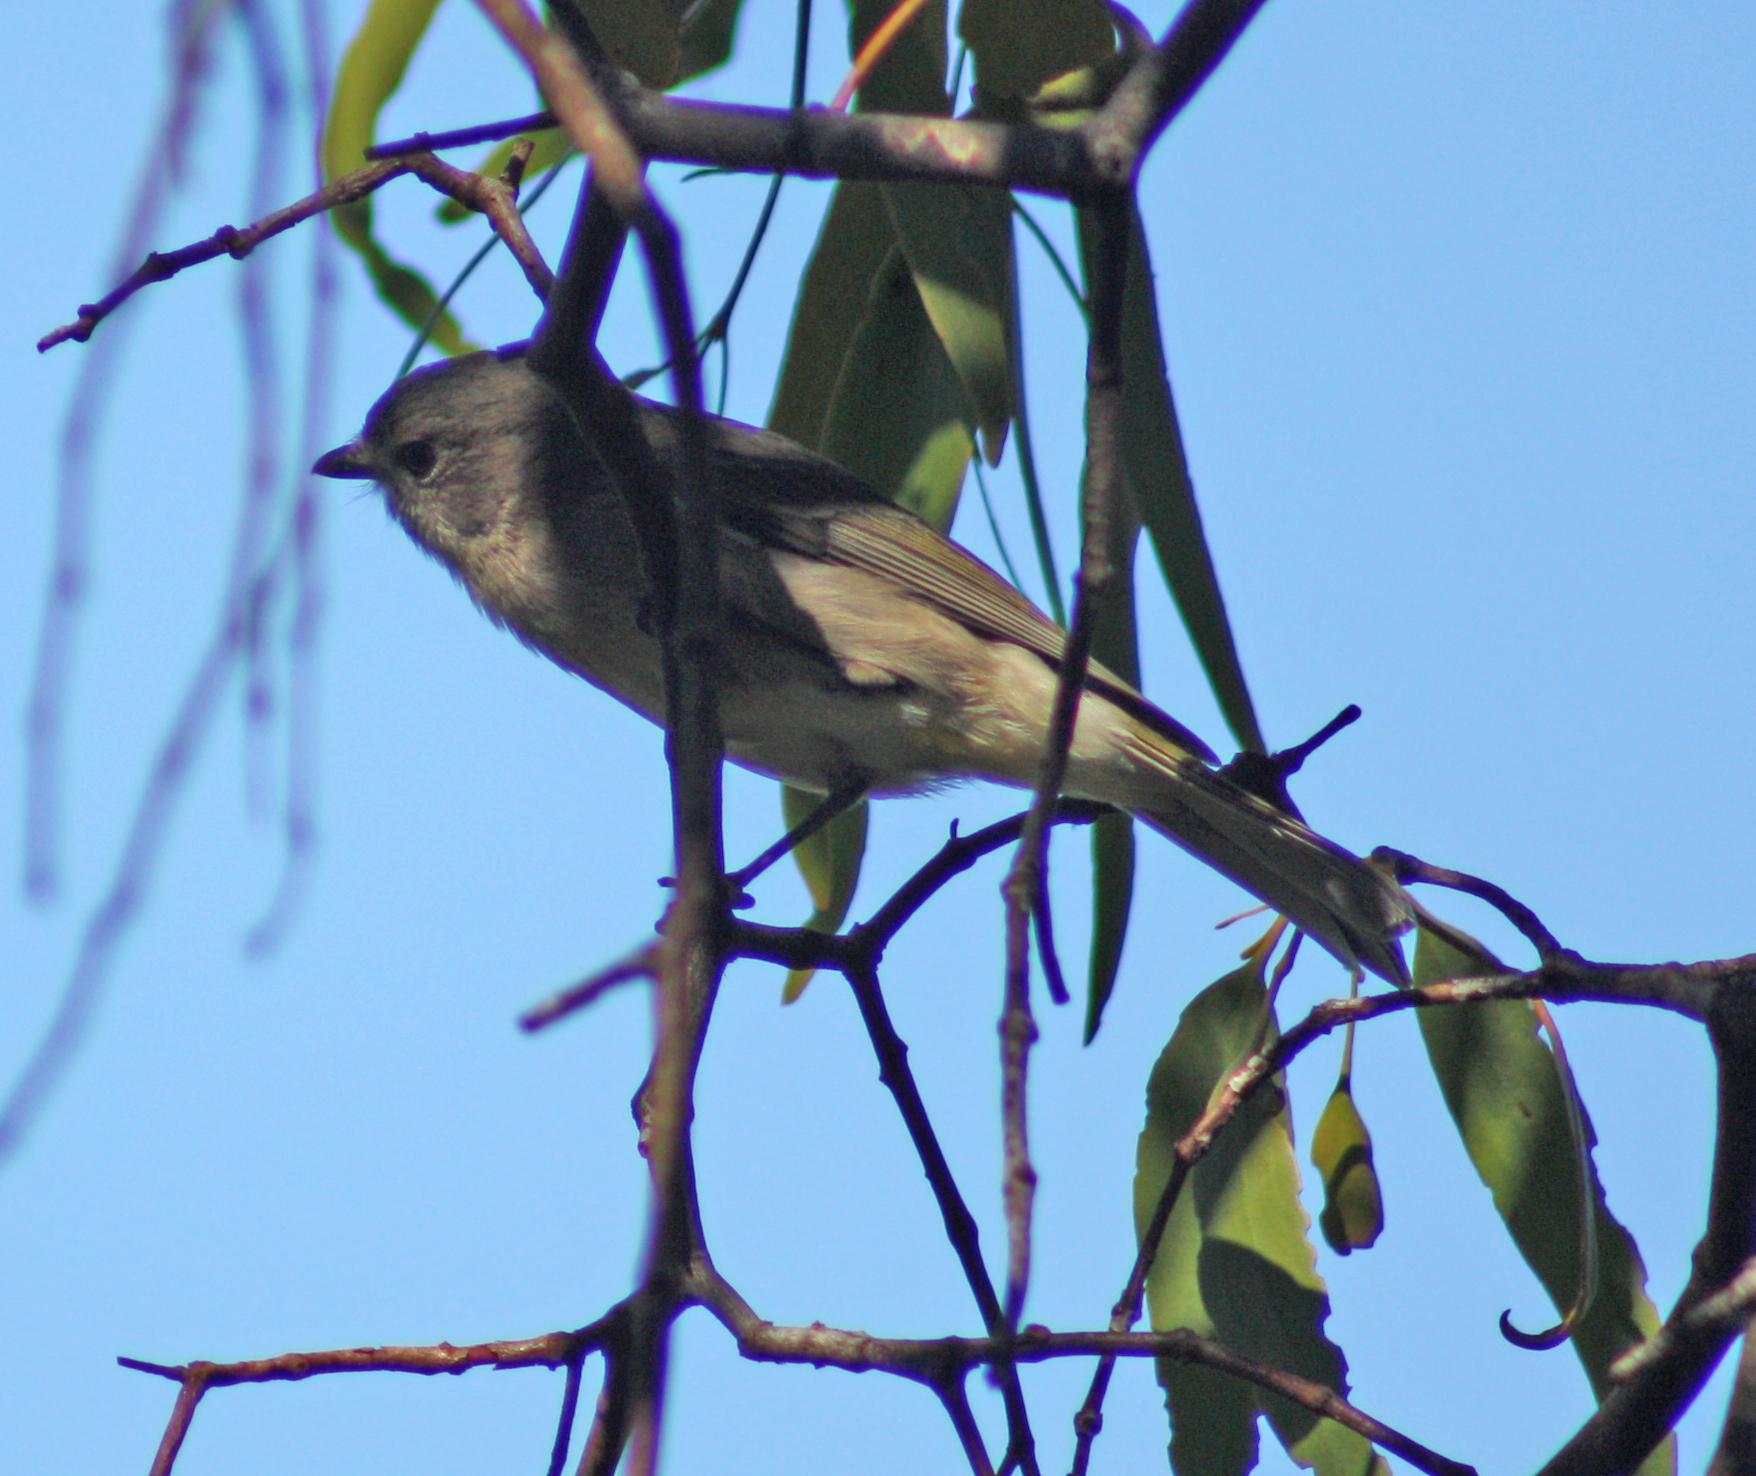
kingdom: Animalia
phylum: Chordata
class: Aves
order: Passeriformes
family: Pachycephalidae
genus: Pachycephala
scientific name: Pachycephala pectoralis
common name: Australian golden whistler
